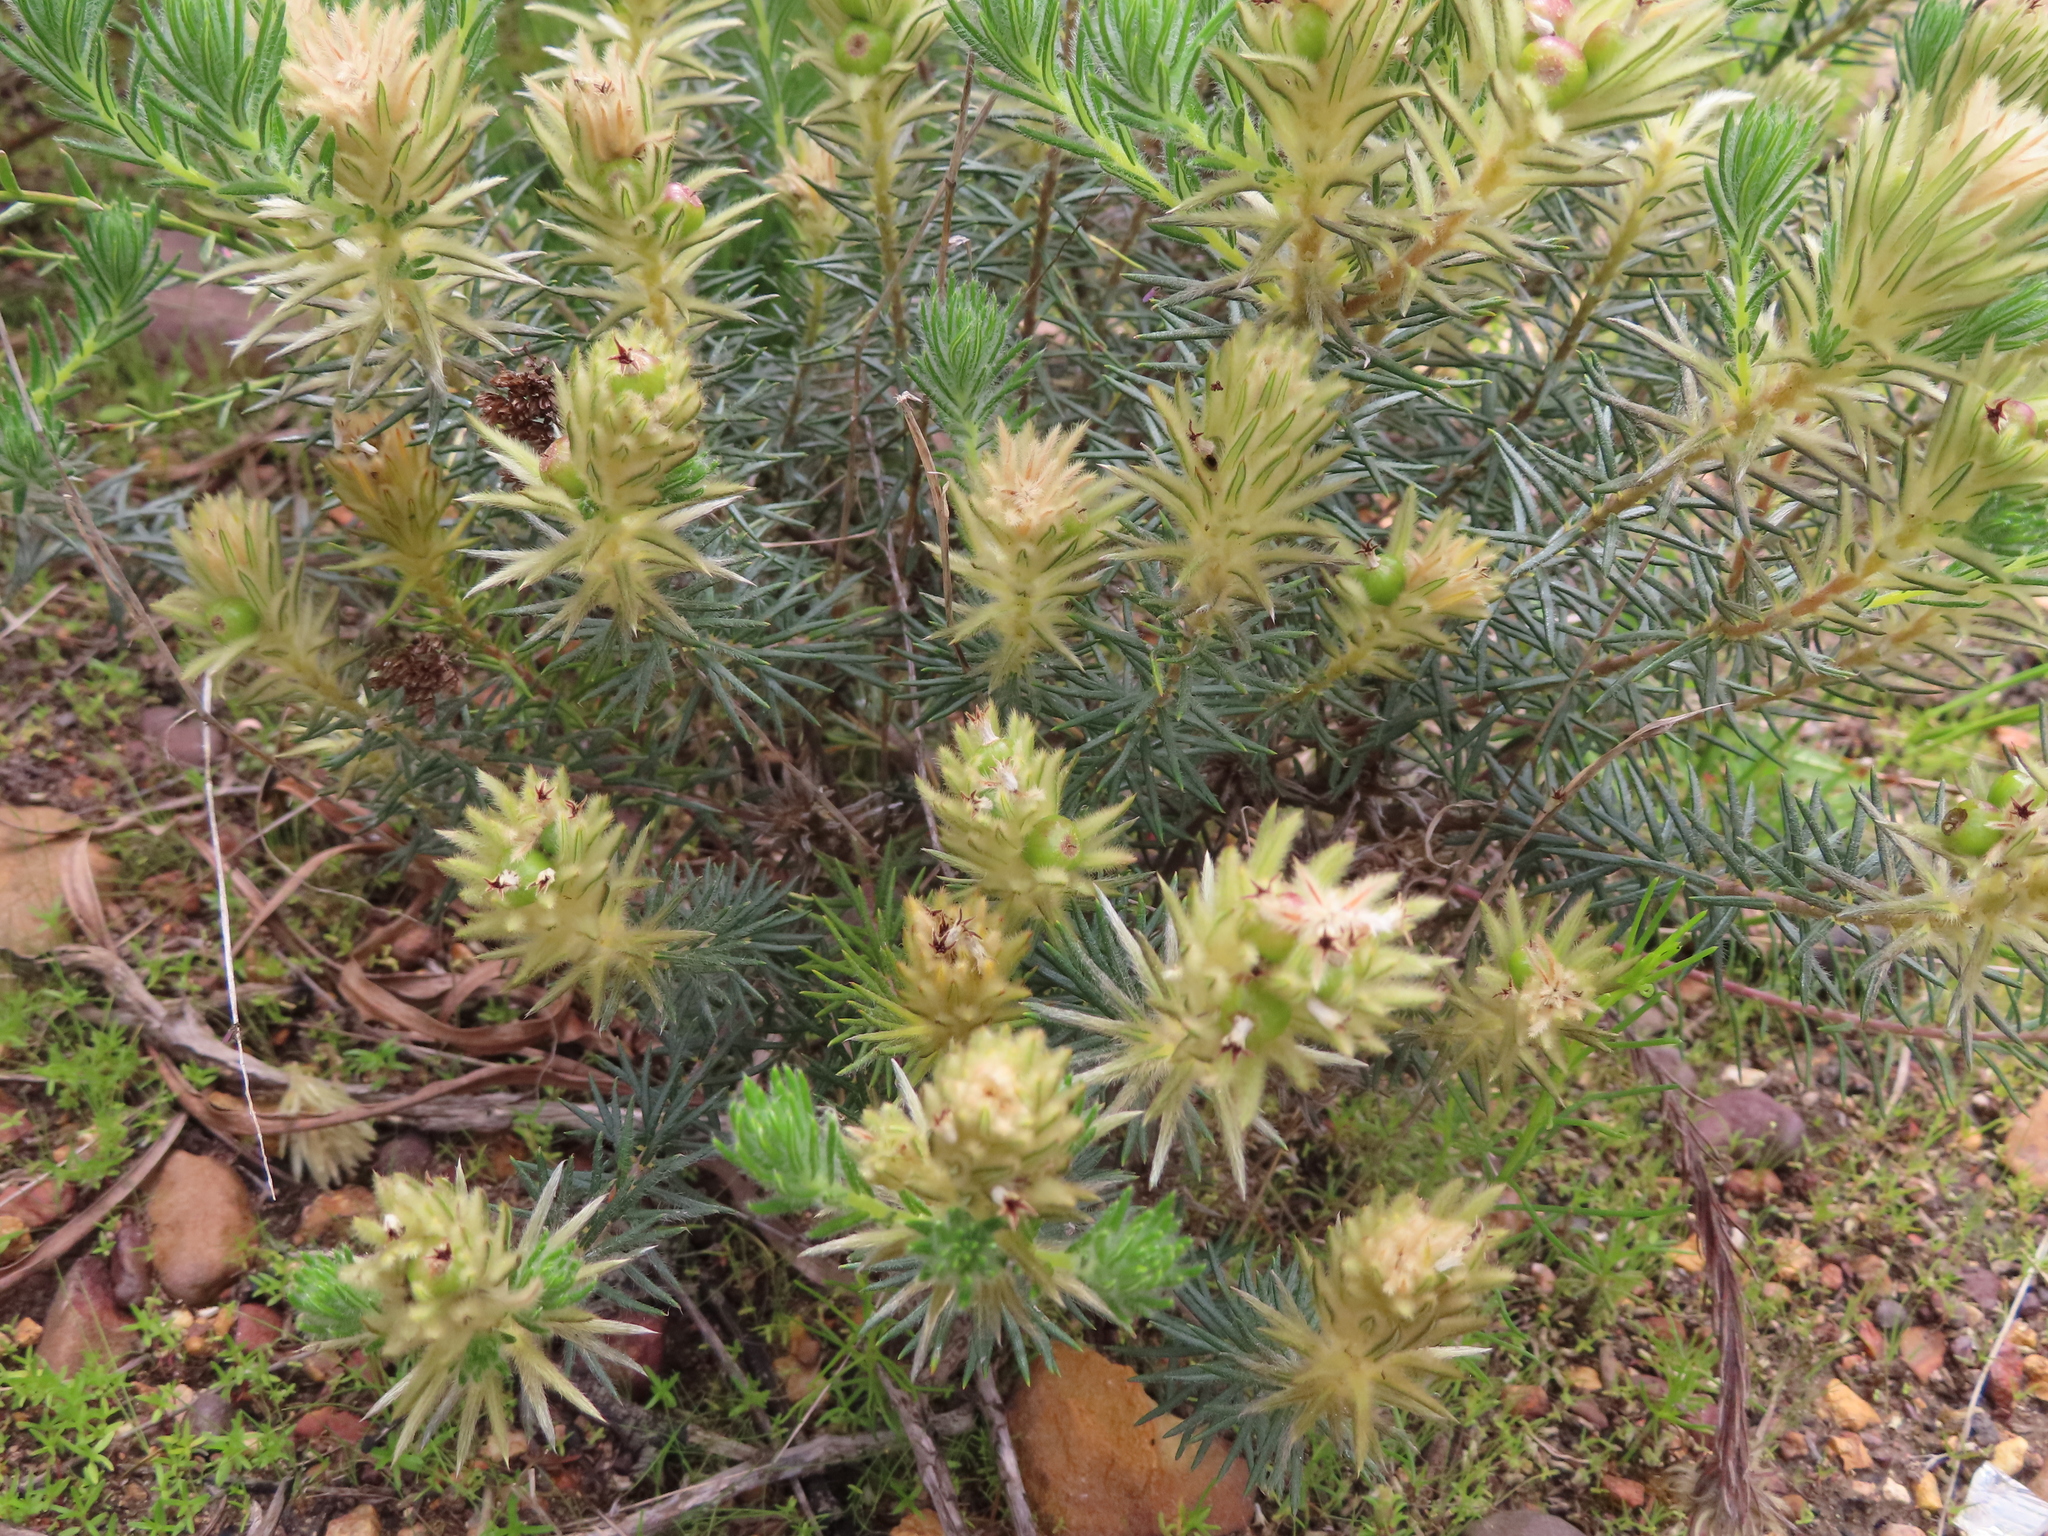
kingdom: Plantae
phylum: Tracheophyta
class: Magnoliopsida
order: Rosales
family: Rhamnaceae
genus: Phylica
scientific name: Phylica plumosa
